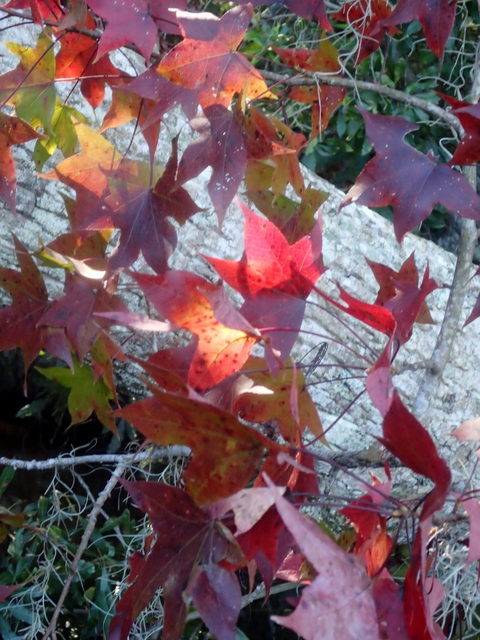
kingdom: Plantae
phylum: Tracheophyta
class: Magnoliopsida
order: Saxifragales
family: Altingiaceae
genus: Liquidambar
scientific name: Liquidambar styraciflua
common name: Sweet gum
